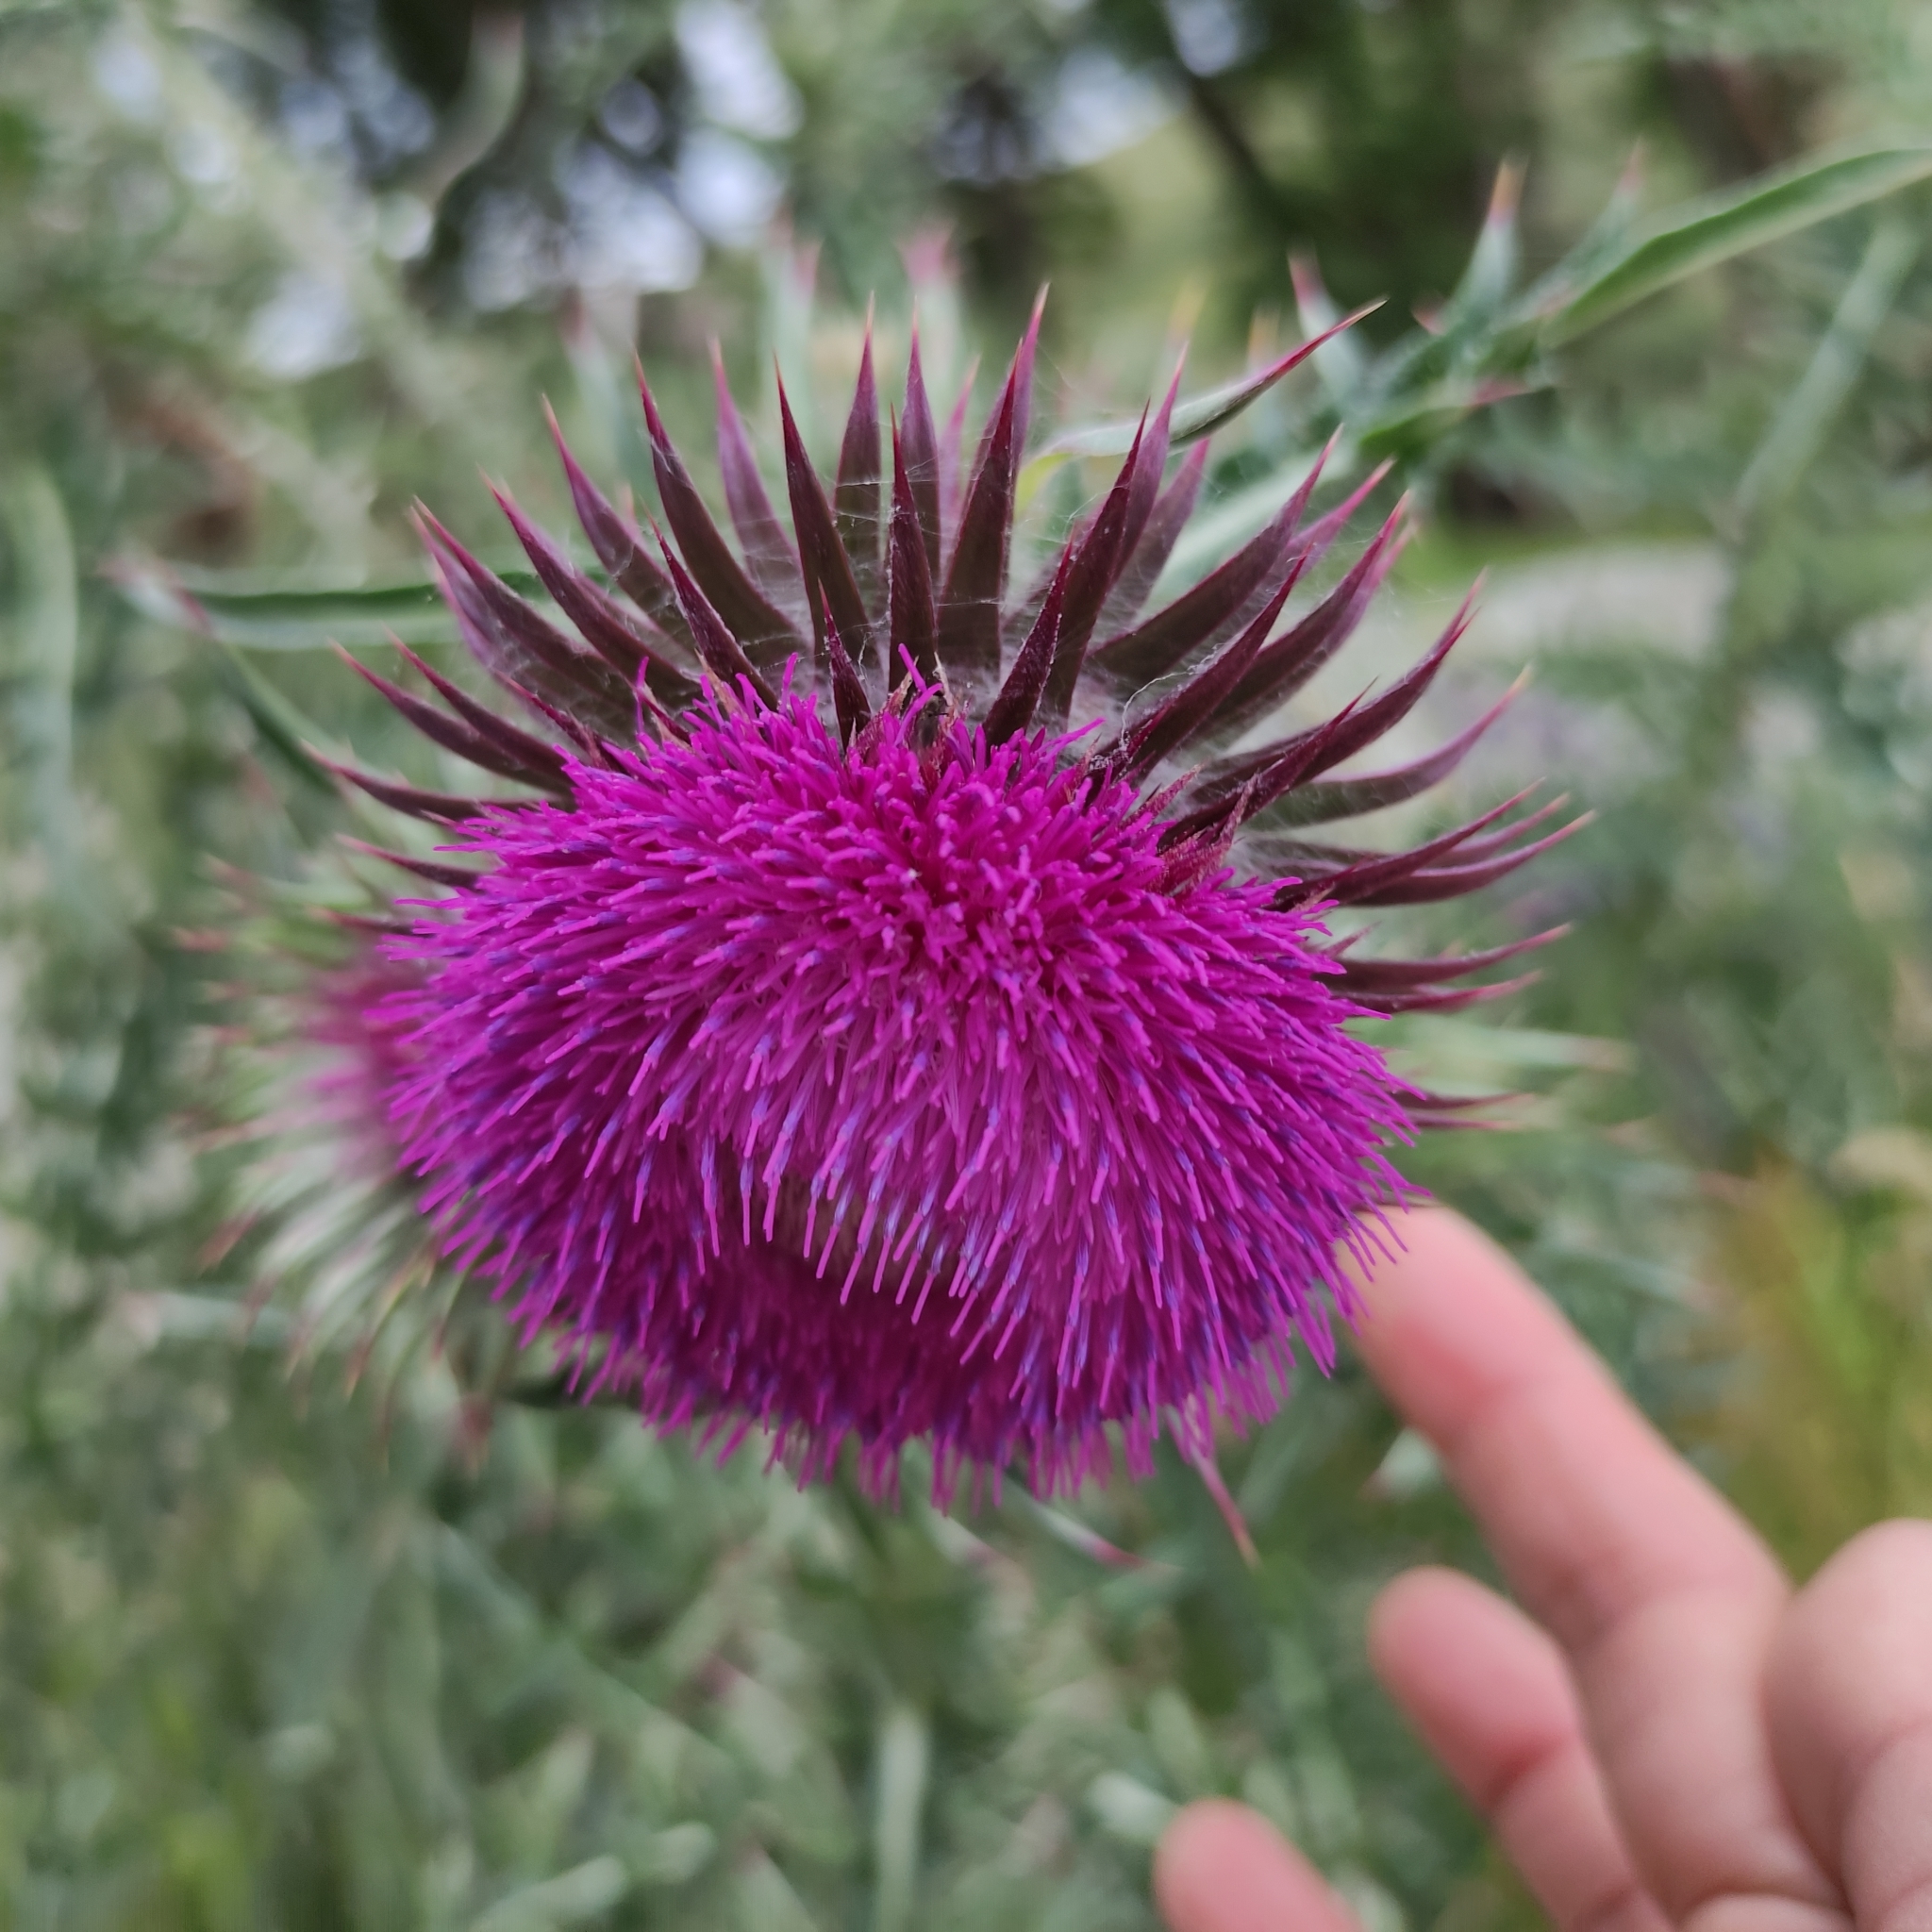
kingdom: Plantae
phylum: Tracheophyta
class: Magnoliopsida
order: Asterales
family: Asteraceae
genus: Carduus
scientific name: Carduus nutans
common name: Musk thistle
